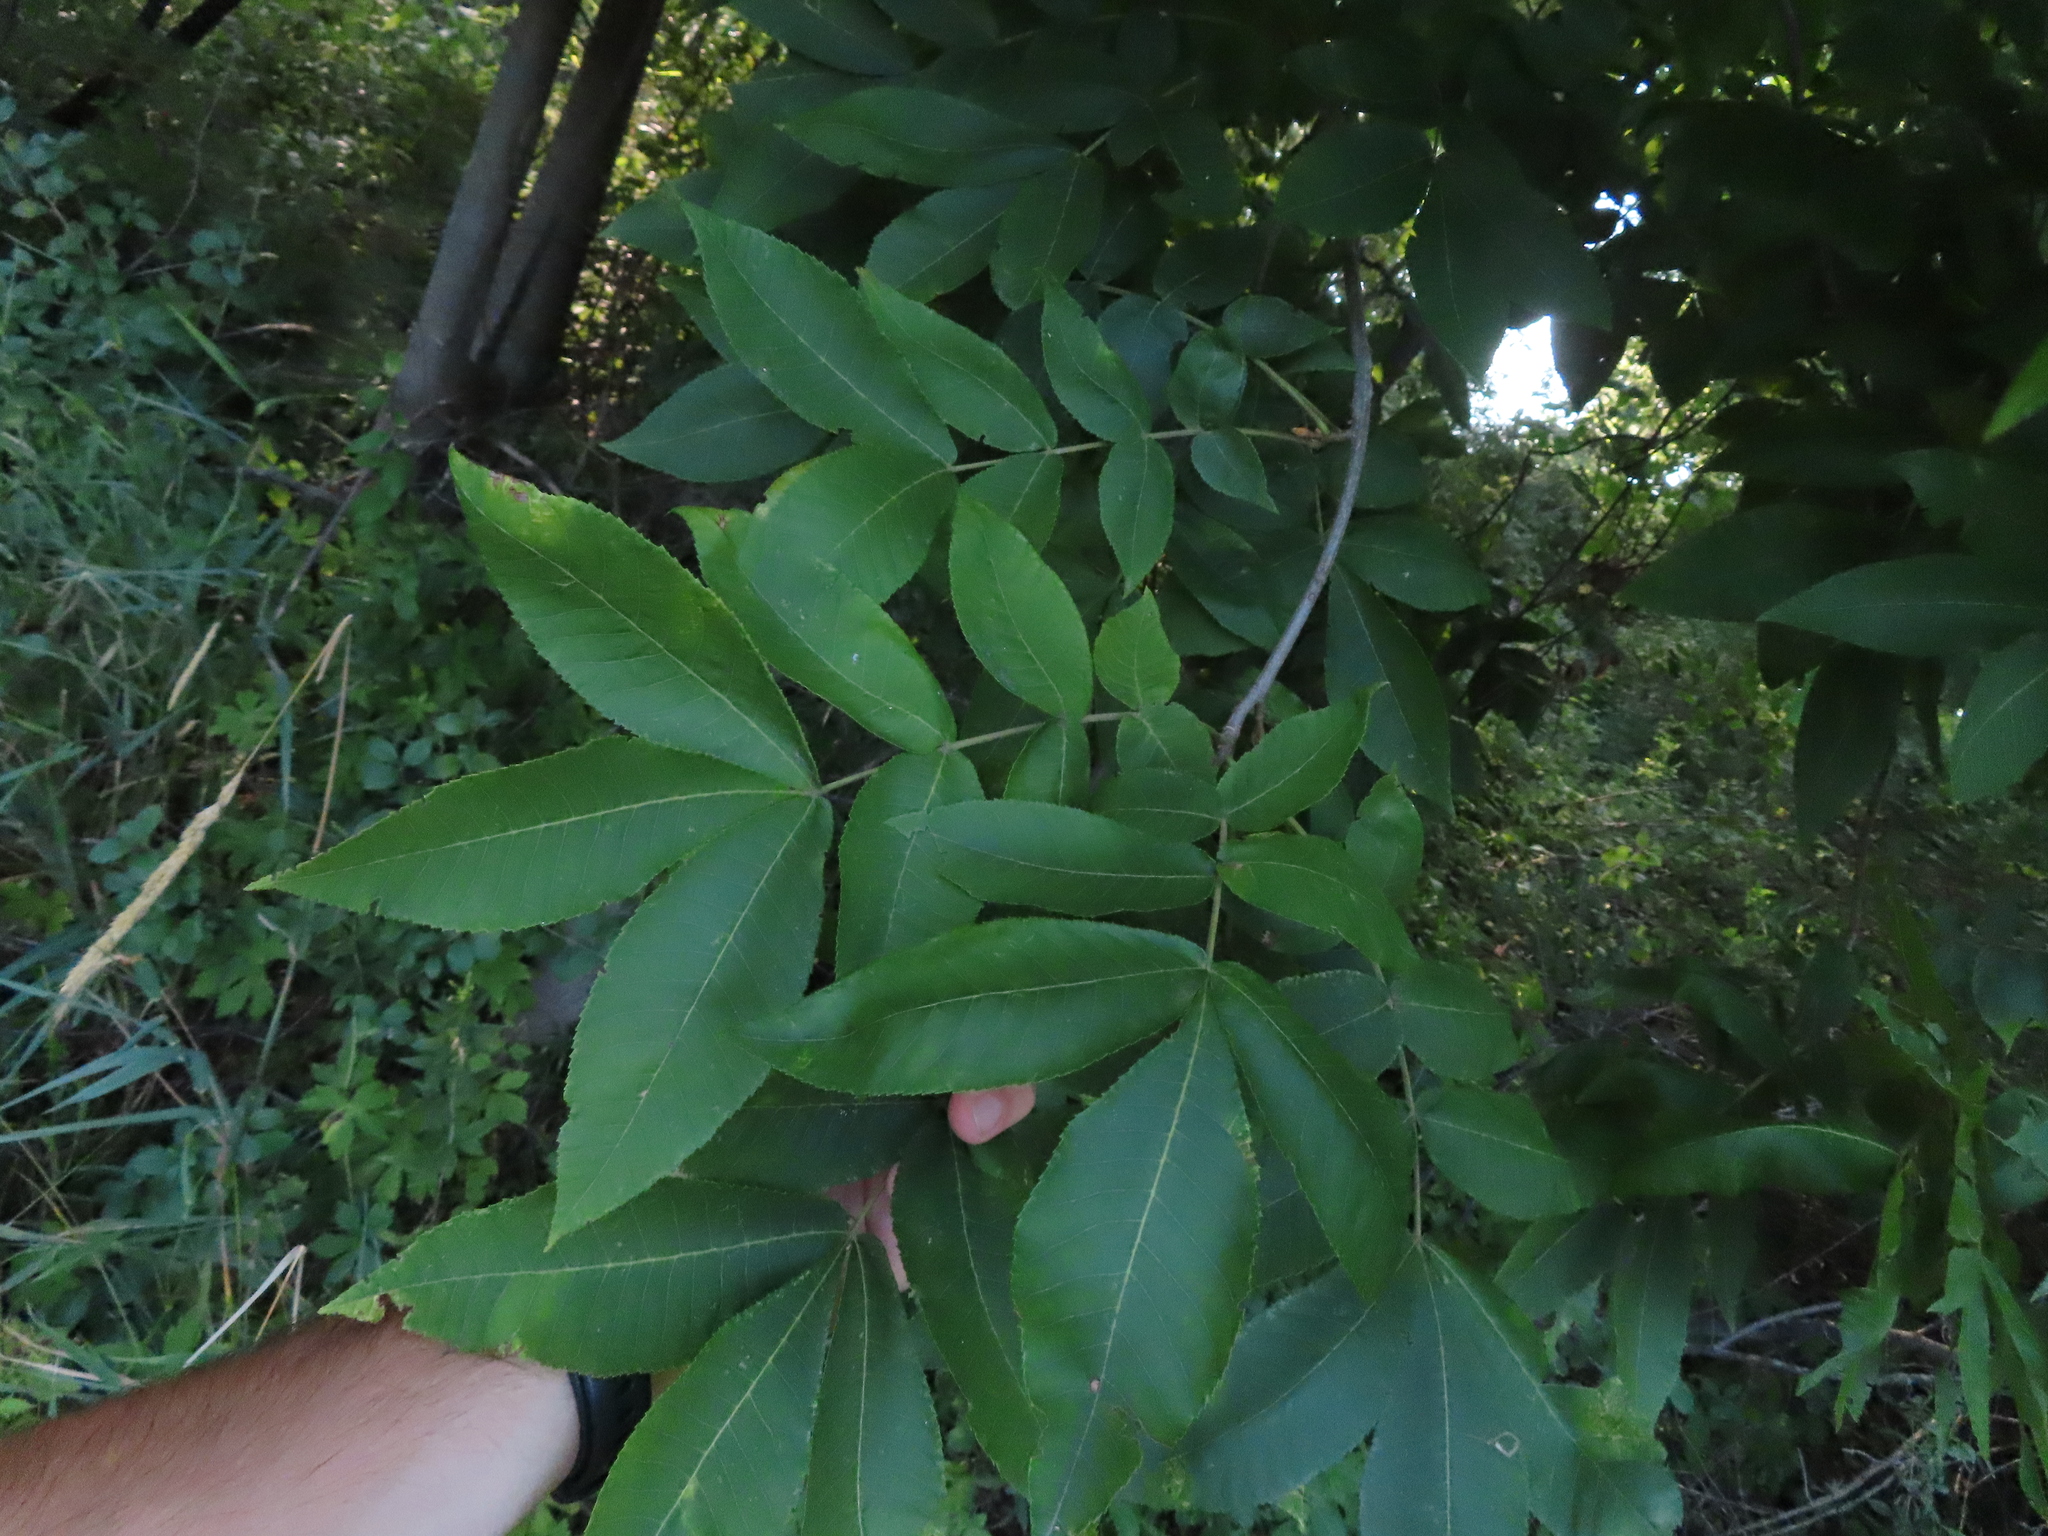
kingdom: Plantae
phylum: Tracheophyta
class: Magnoliopsida
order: Fagales
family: Juglandaceae
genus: Carya
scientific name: Carya cordiformis
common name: Bitternut hickory
